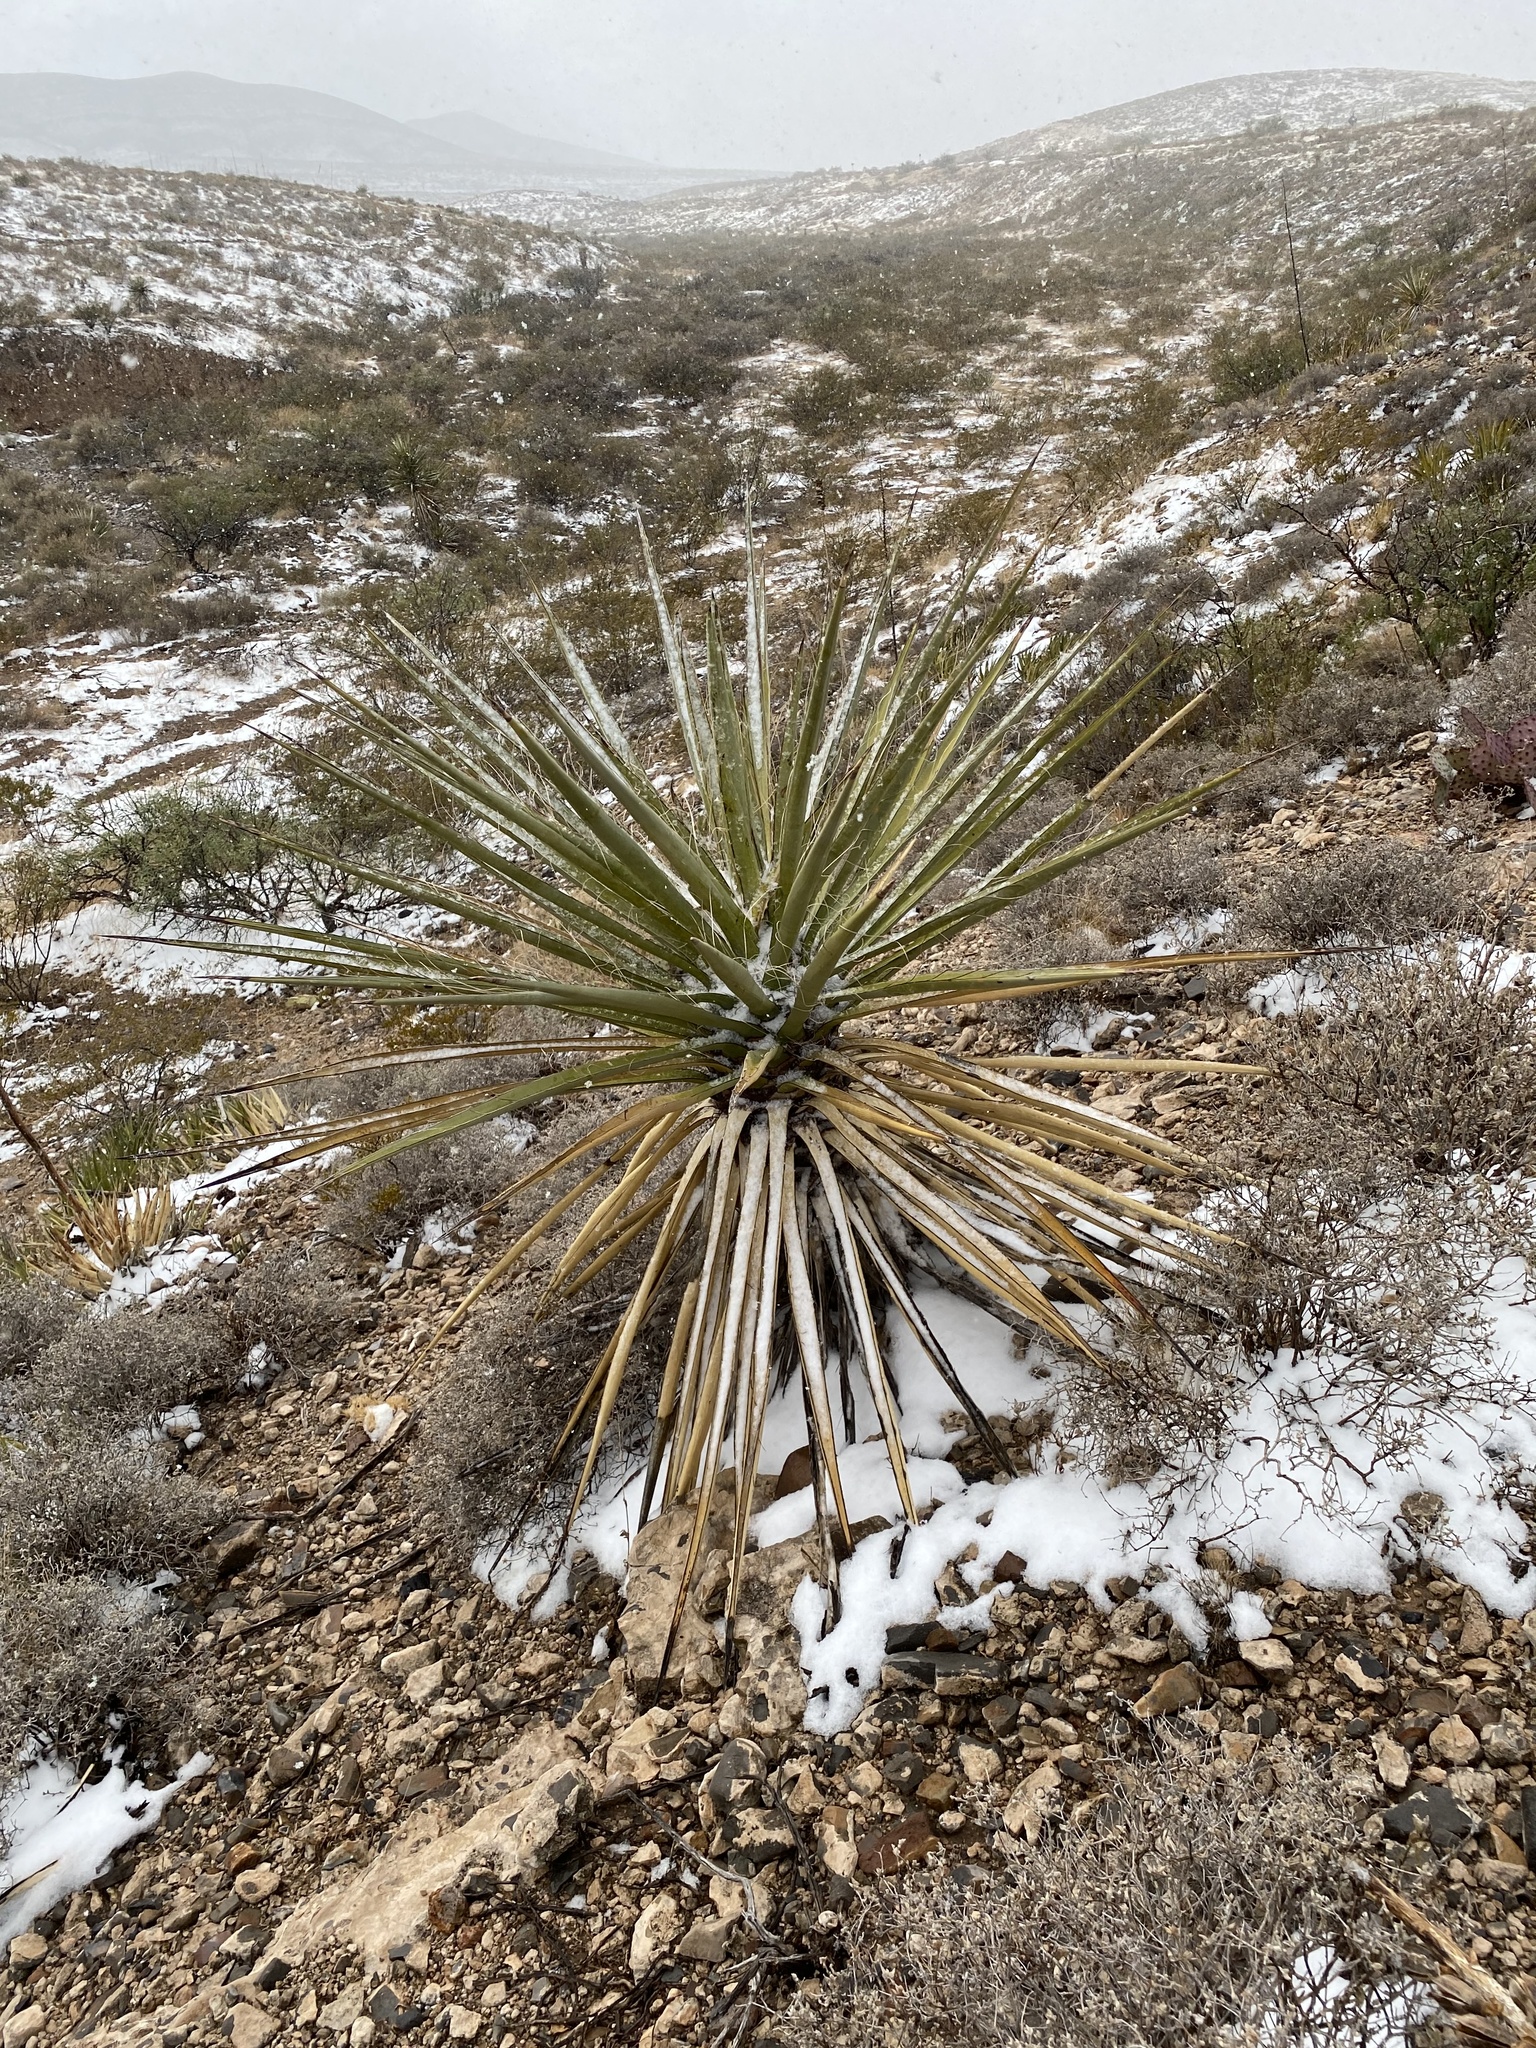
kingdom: Plantae
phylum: Tracheophyta
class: Liliopsida
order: Asparagales
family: Asparagaceae
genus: Yucca
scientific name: Yucca treculiana
